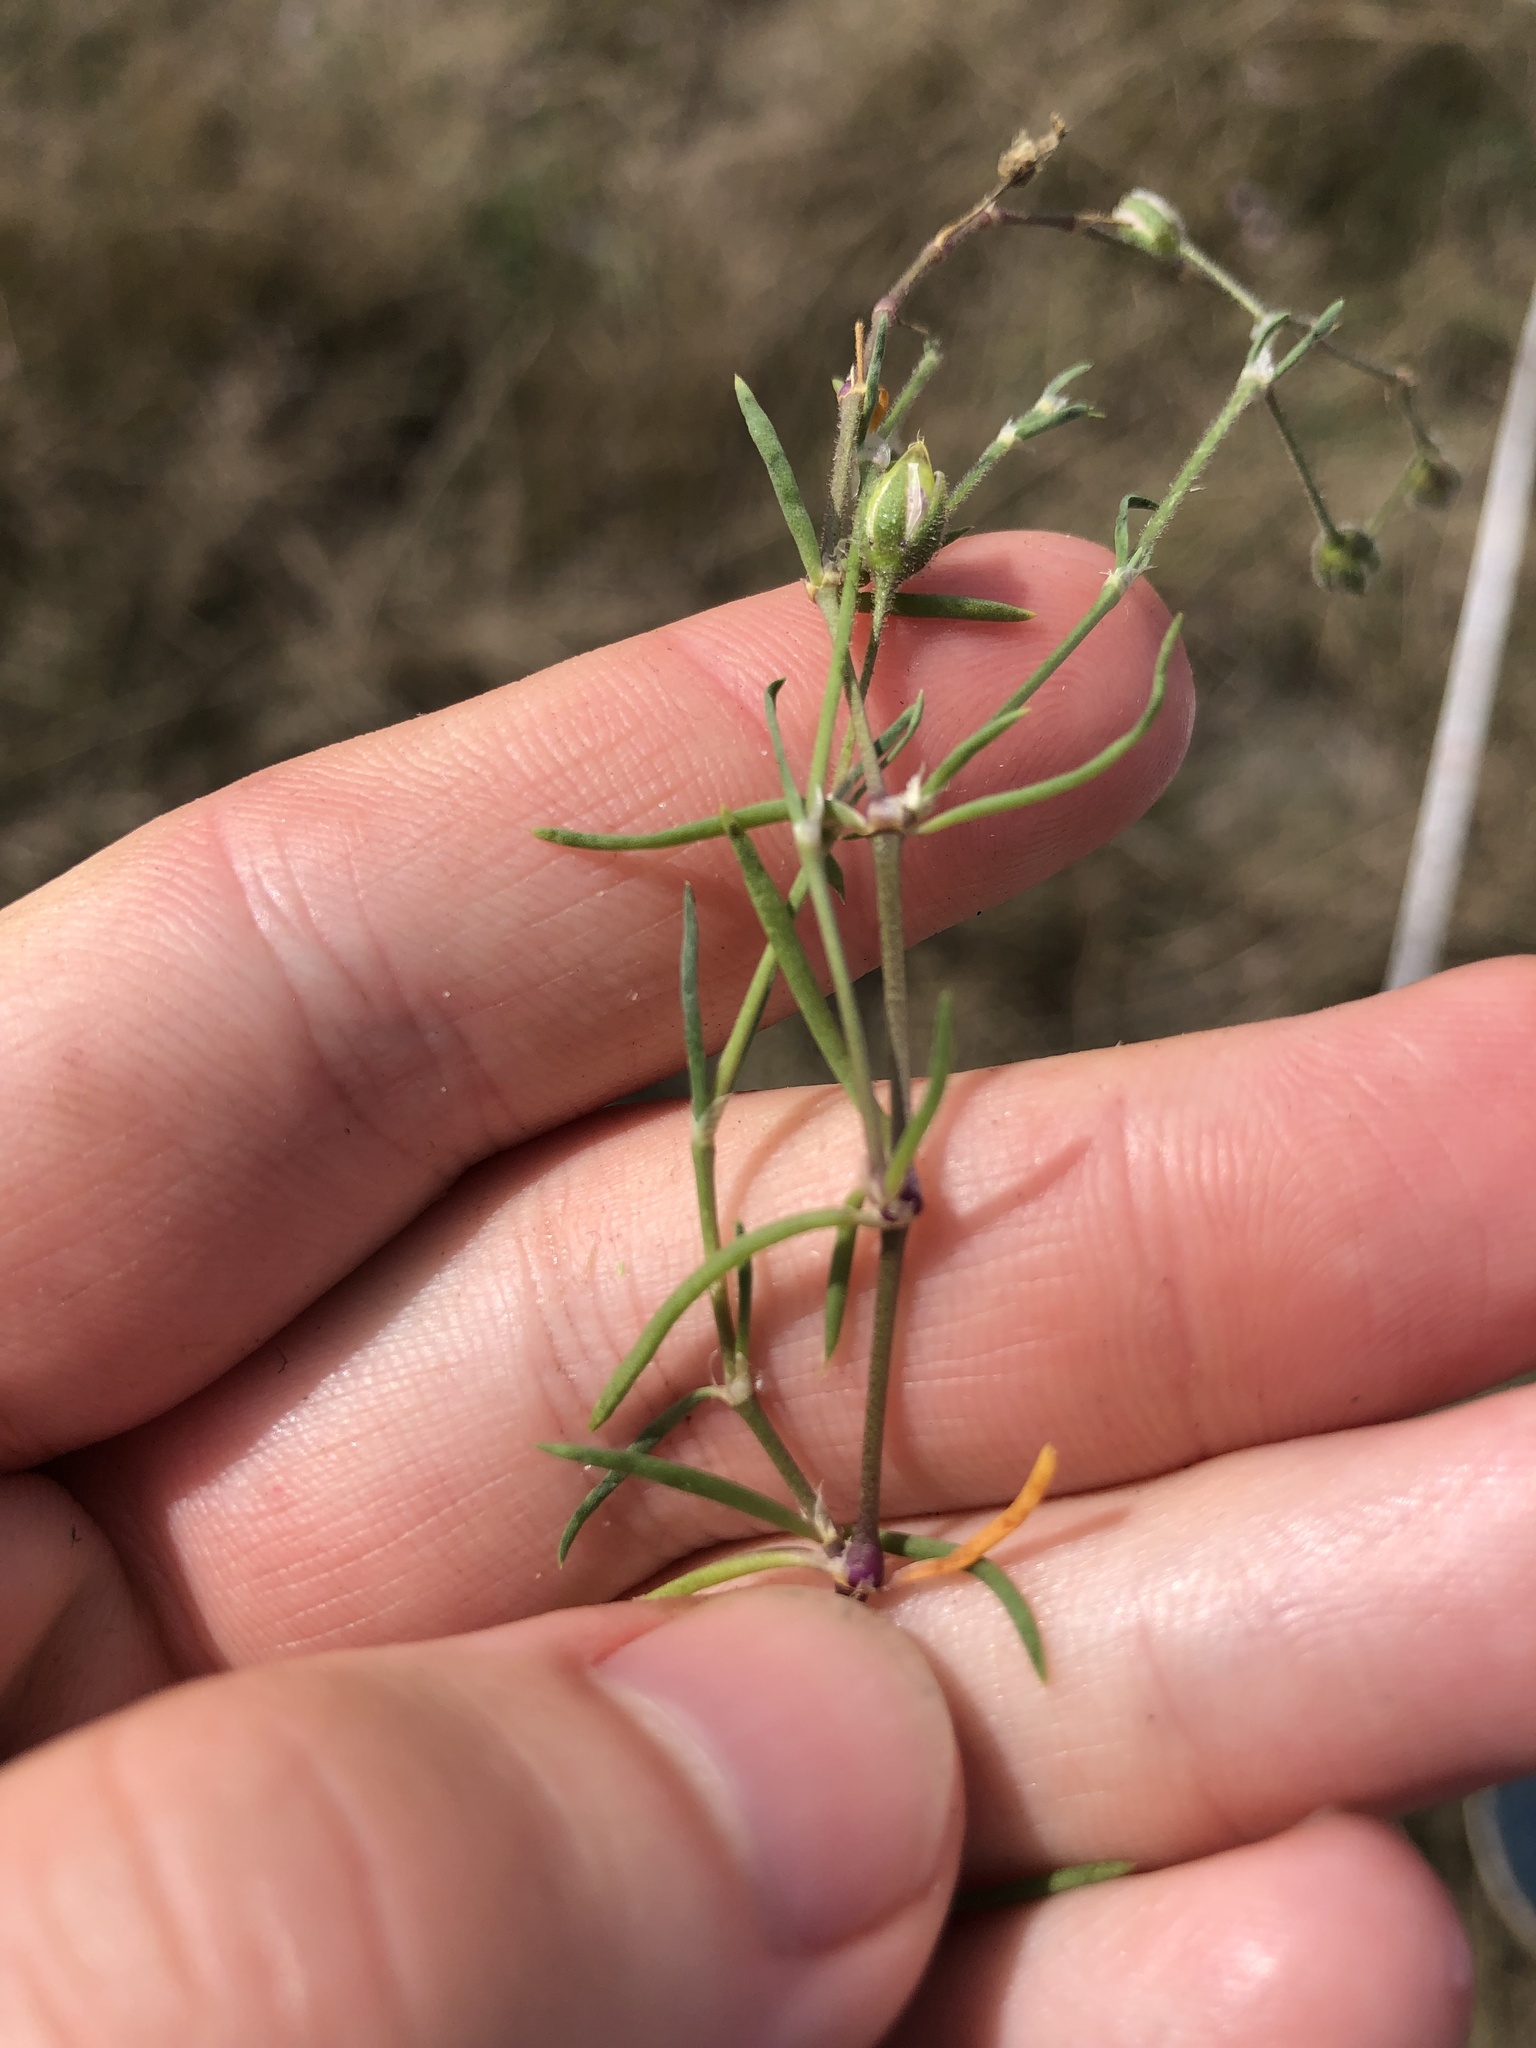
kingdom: Plantae
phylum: Tracheophyta
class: Magnoliopsida
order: Caryophyllales
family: Caryophyllaceae
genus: Spergularia
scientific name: Spergularia media
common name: Greater sea-spurrey
